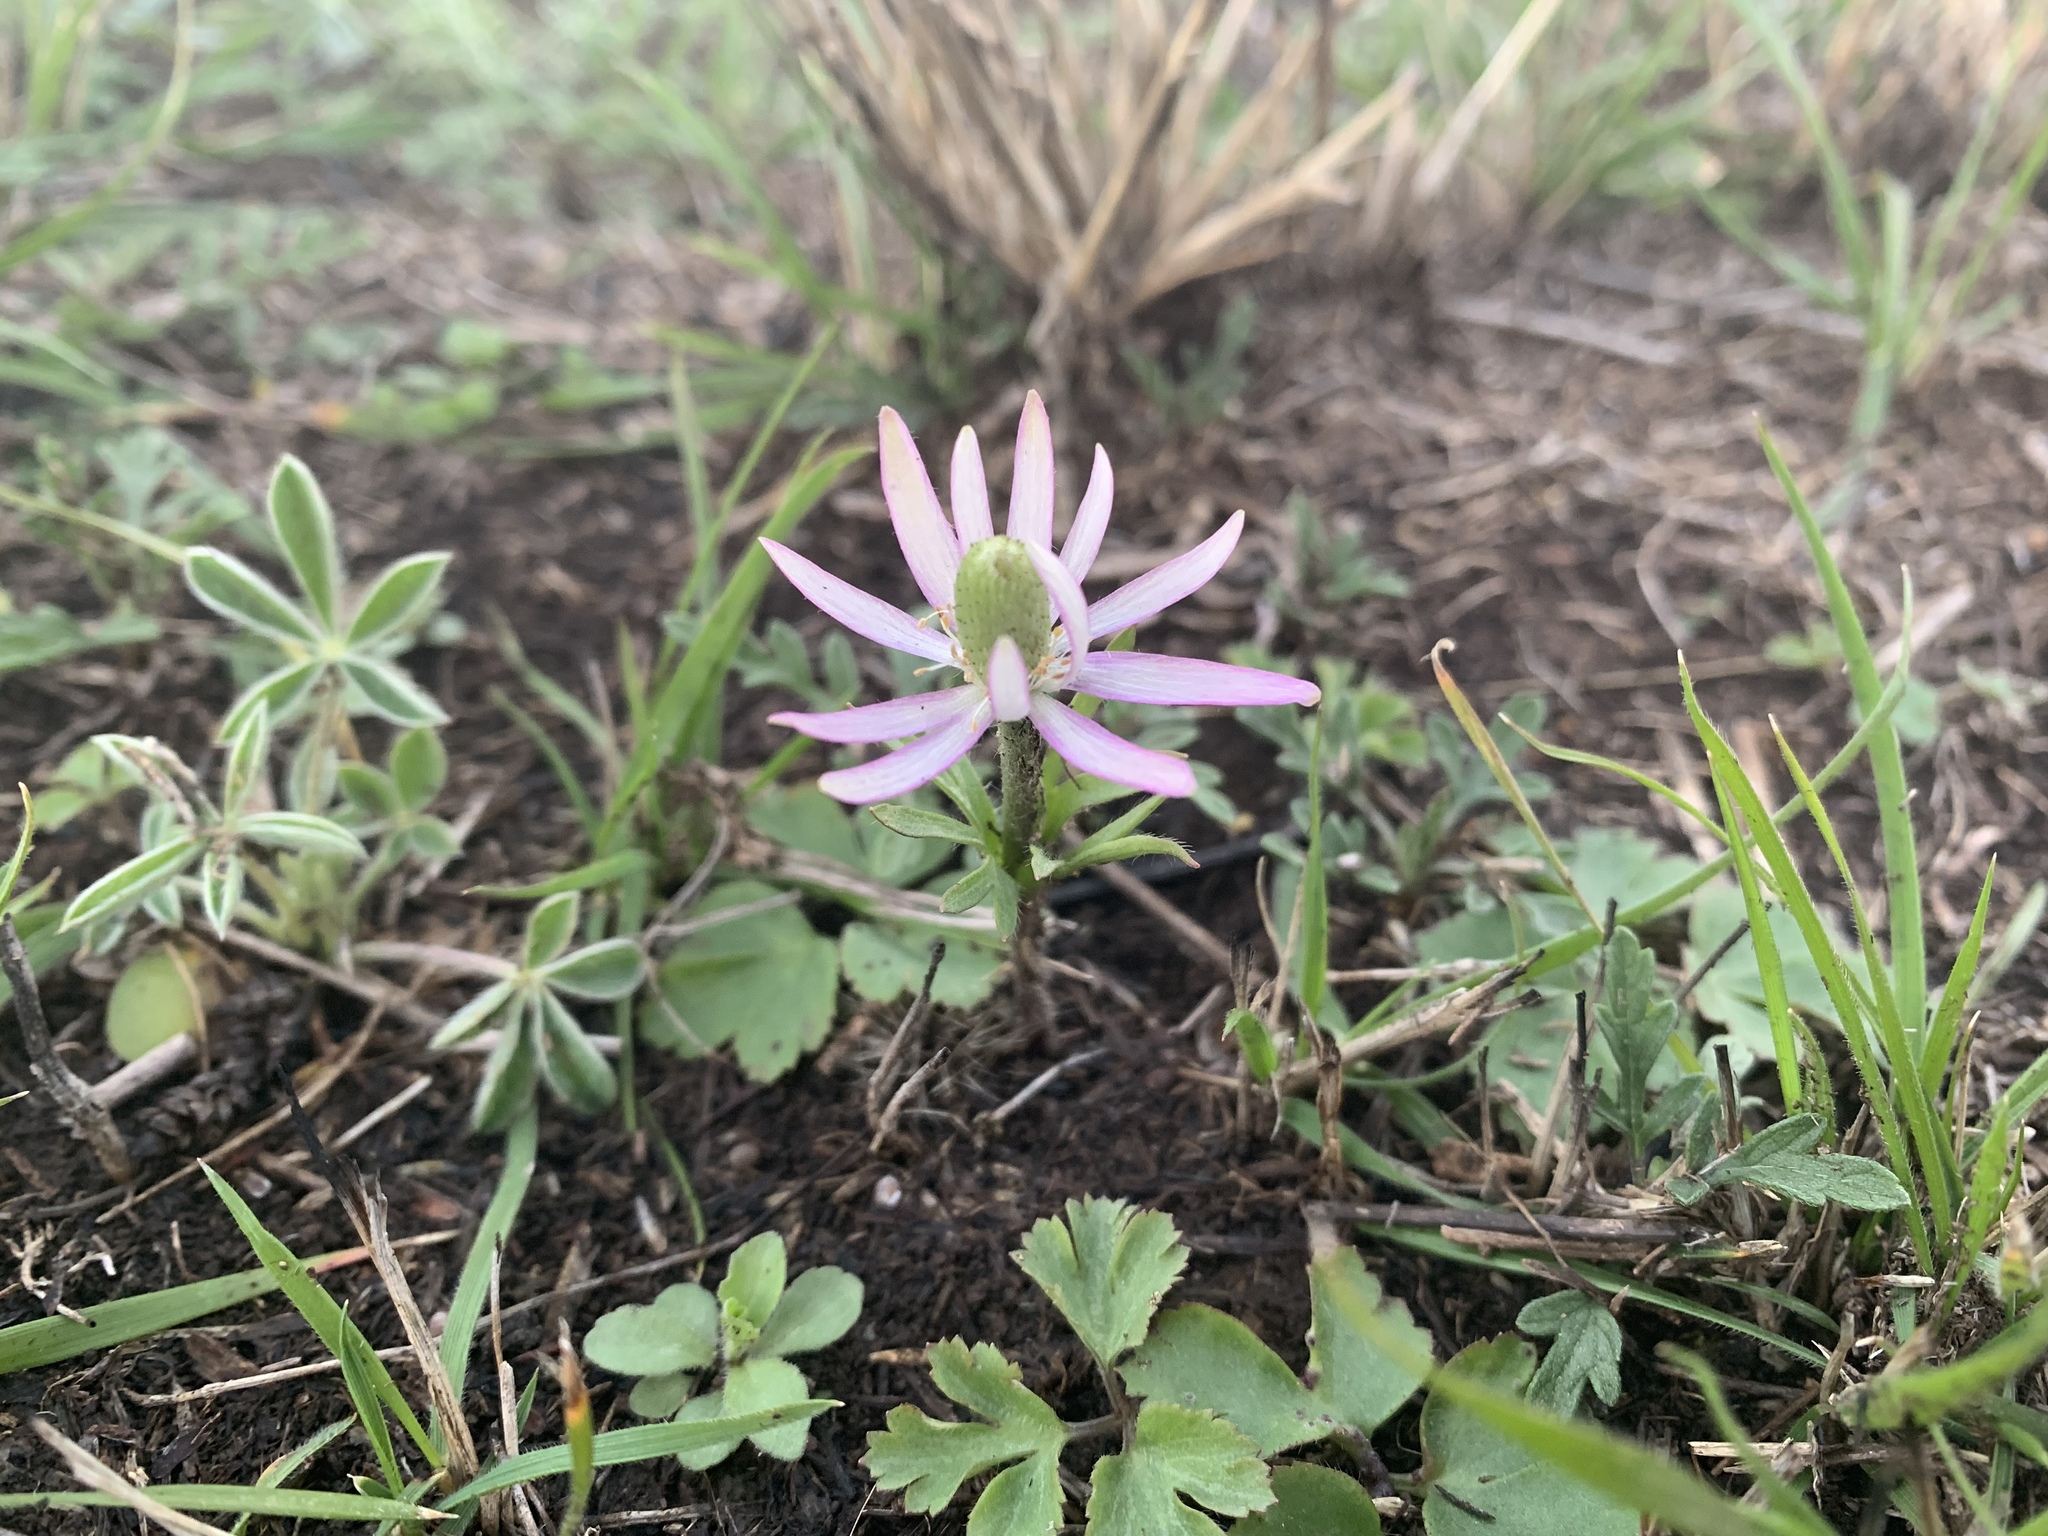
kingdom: Plantae
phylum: Tracheophyta
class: Magnoliopsida
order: Ranunculales
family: Ranunculaceae
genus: Anemone
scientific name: Anemone berlandieri
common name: Ten-petal anemone
